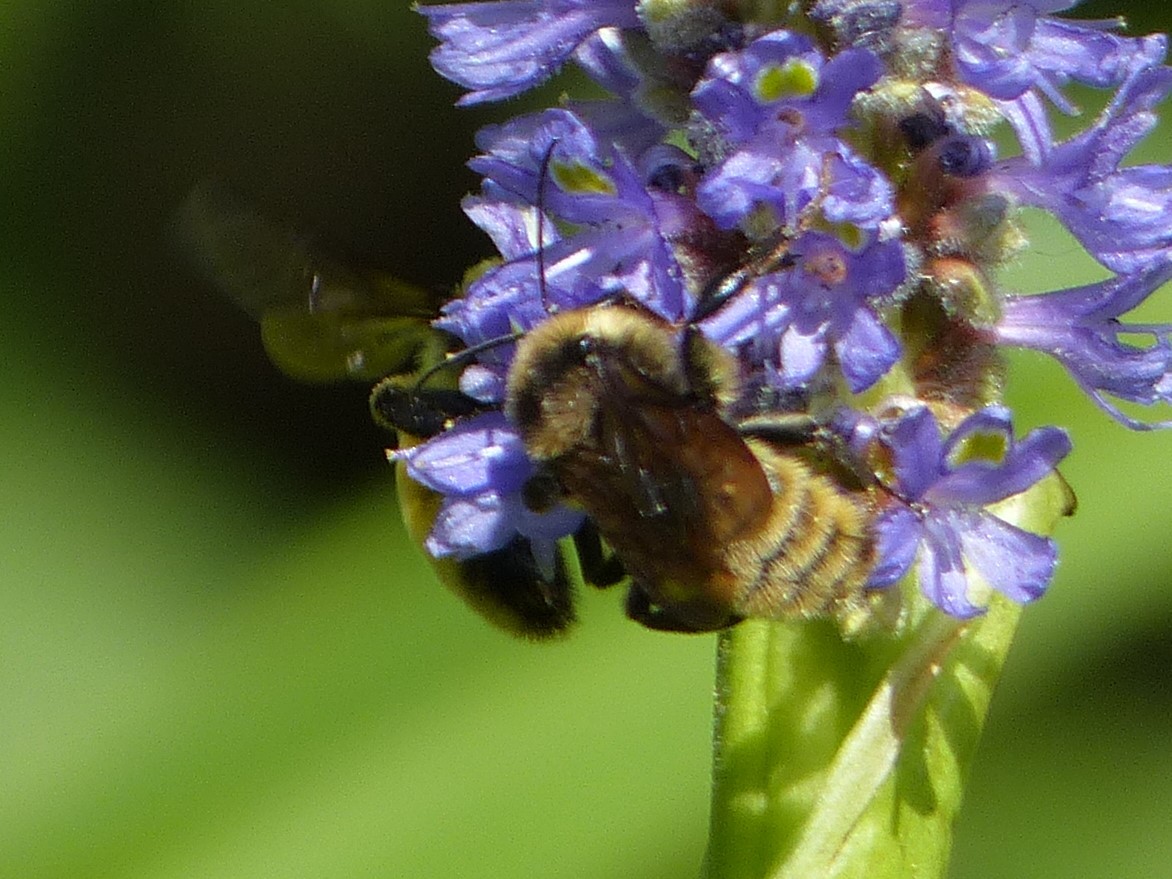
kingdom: Animalia
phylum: Arthropoda
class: Insecta
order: Hymenoptera
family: Apidae
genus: Bombus
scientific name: Bombus pensylvanicus
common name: Bumble bee
